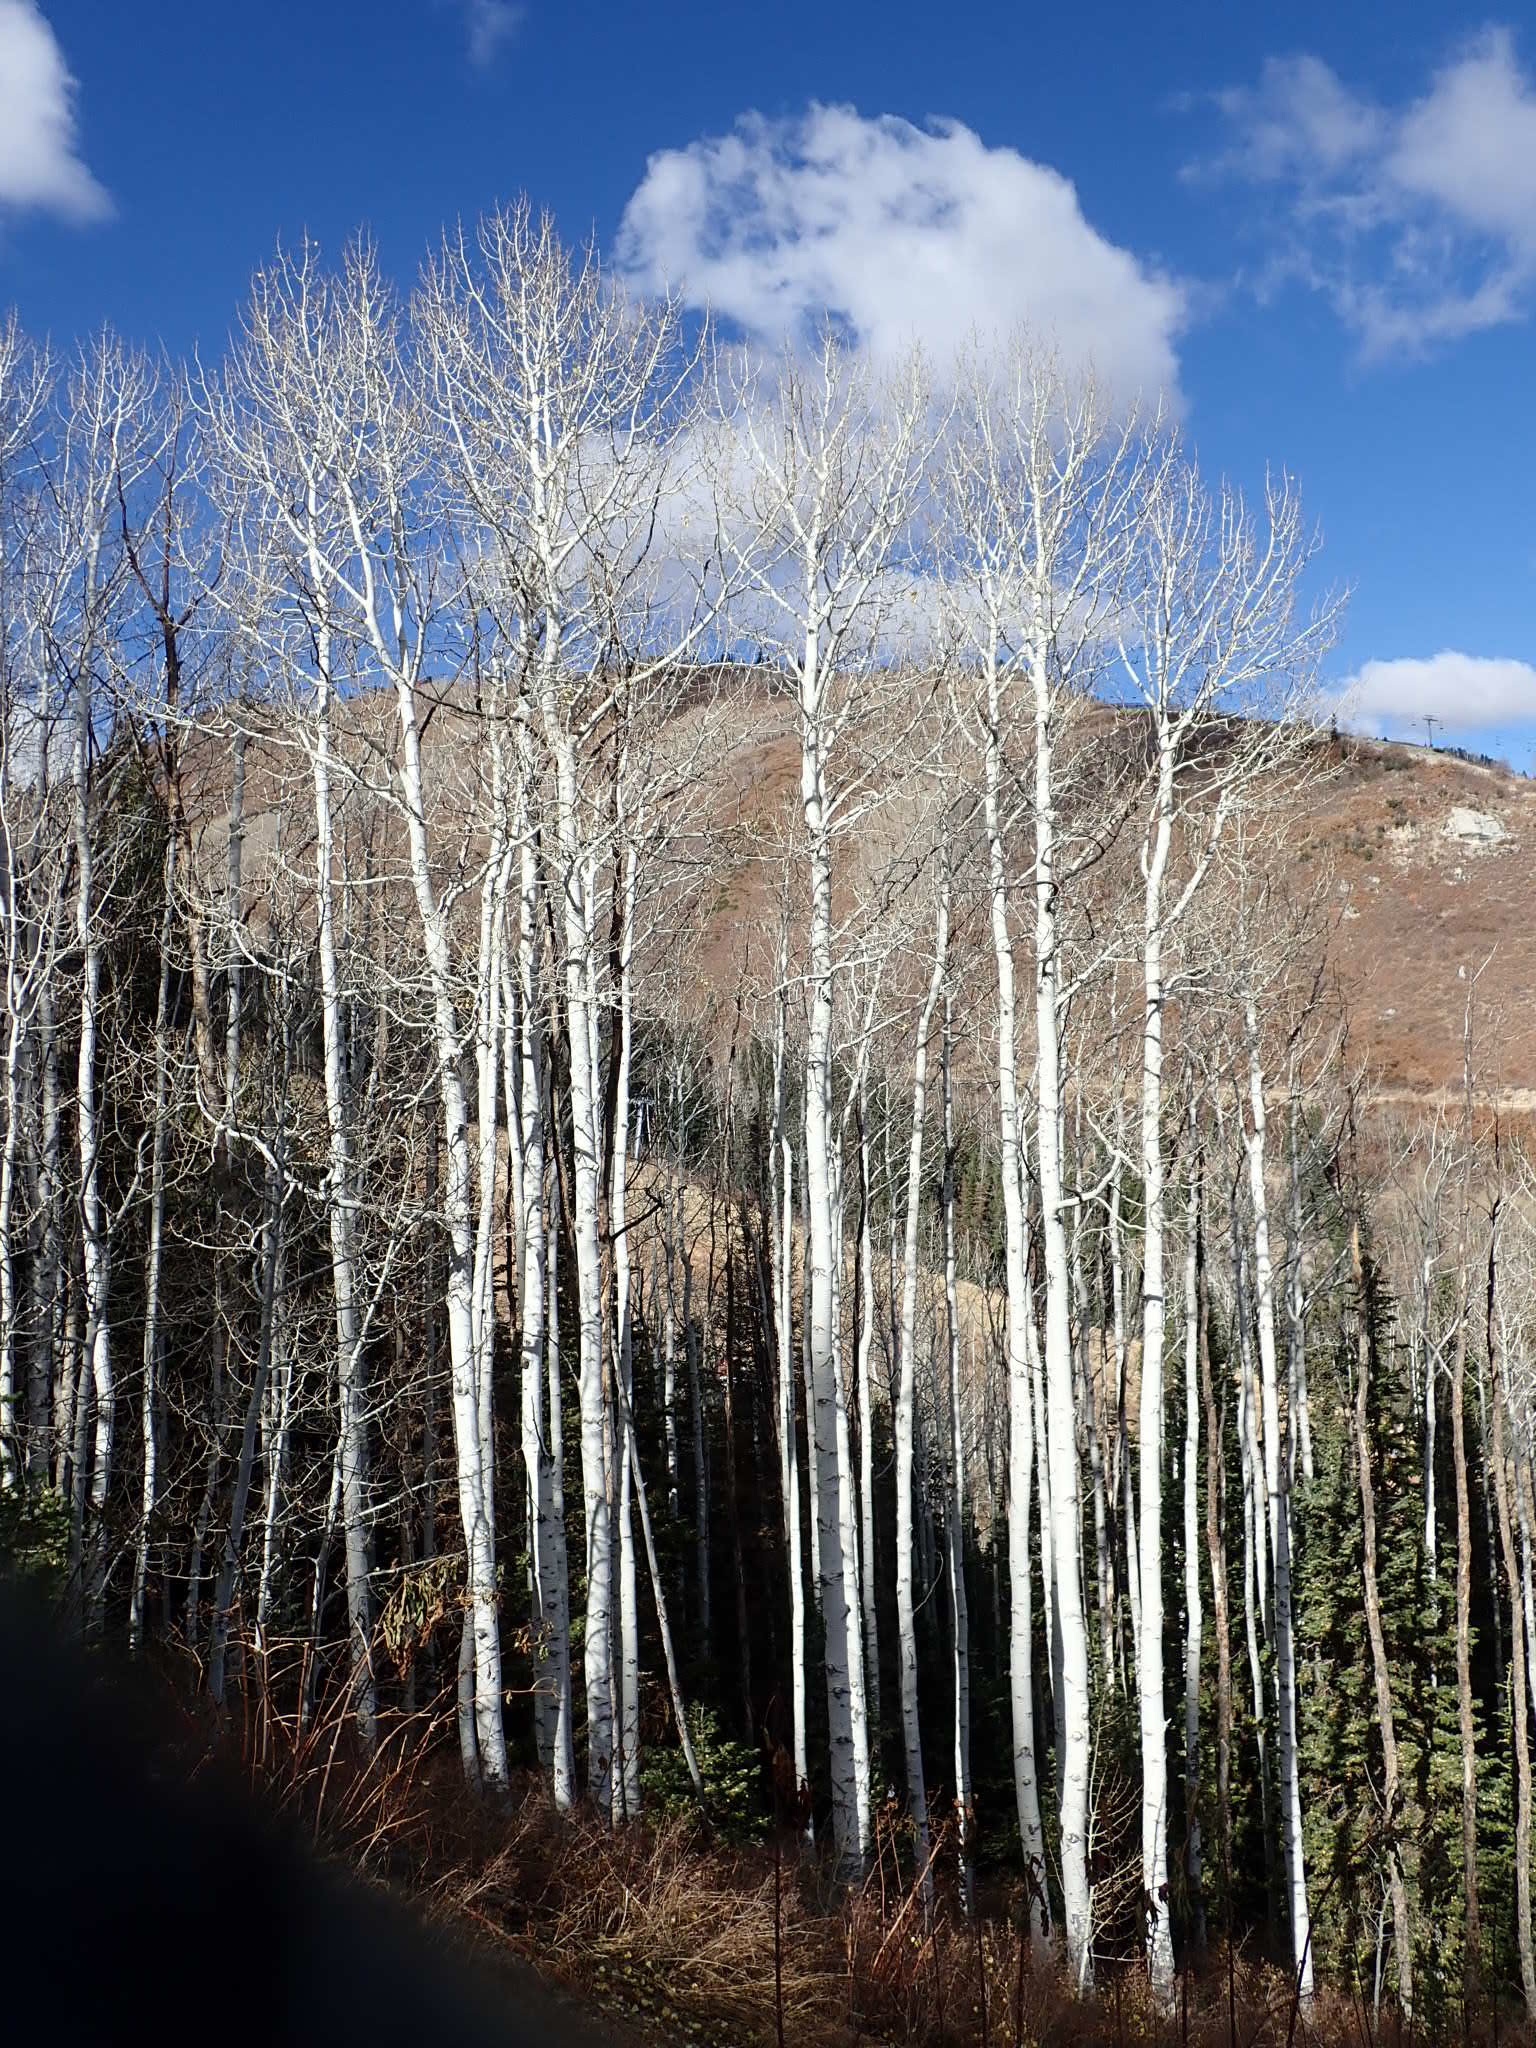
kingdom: Plantae
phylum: Tracheophyta
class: Magnoliopsida
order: Malpighiales
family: Salicaceae
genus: Populus
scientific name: Populus tremuloides
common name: Quaking aspen
